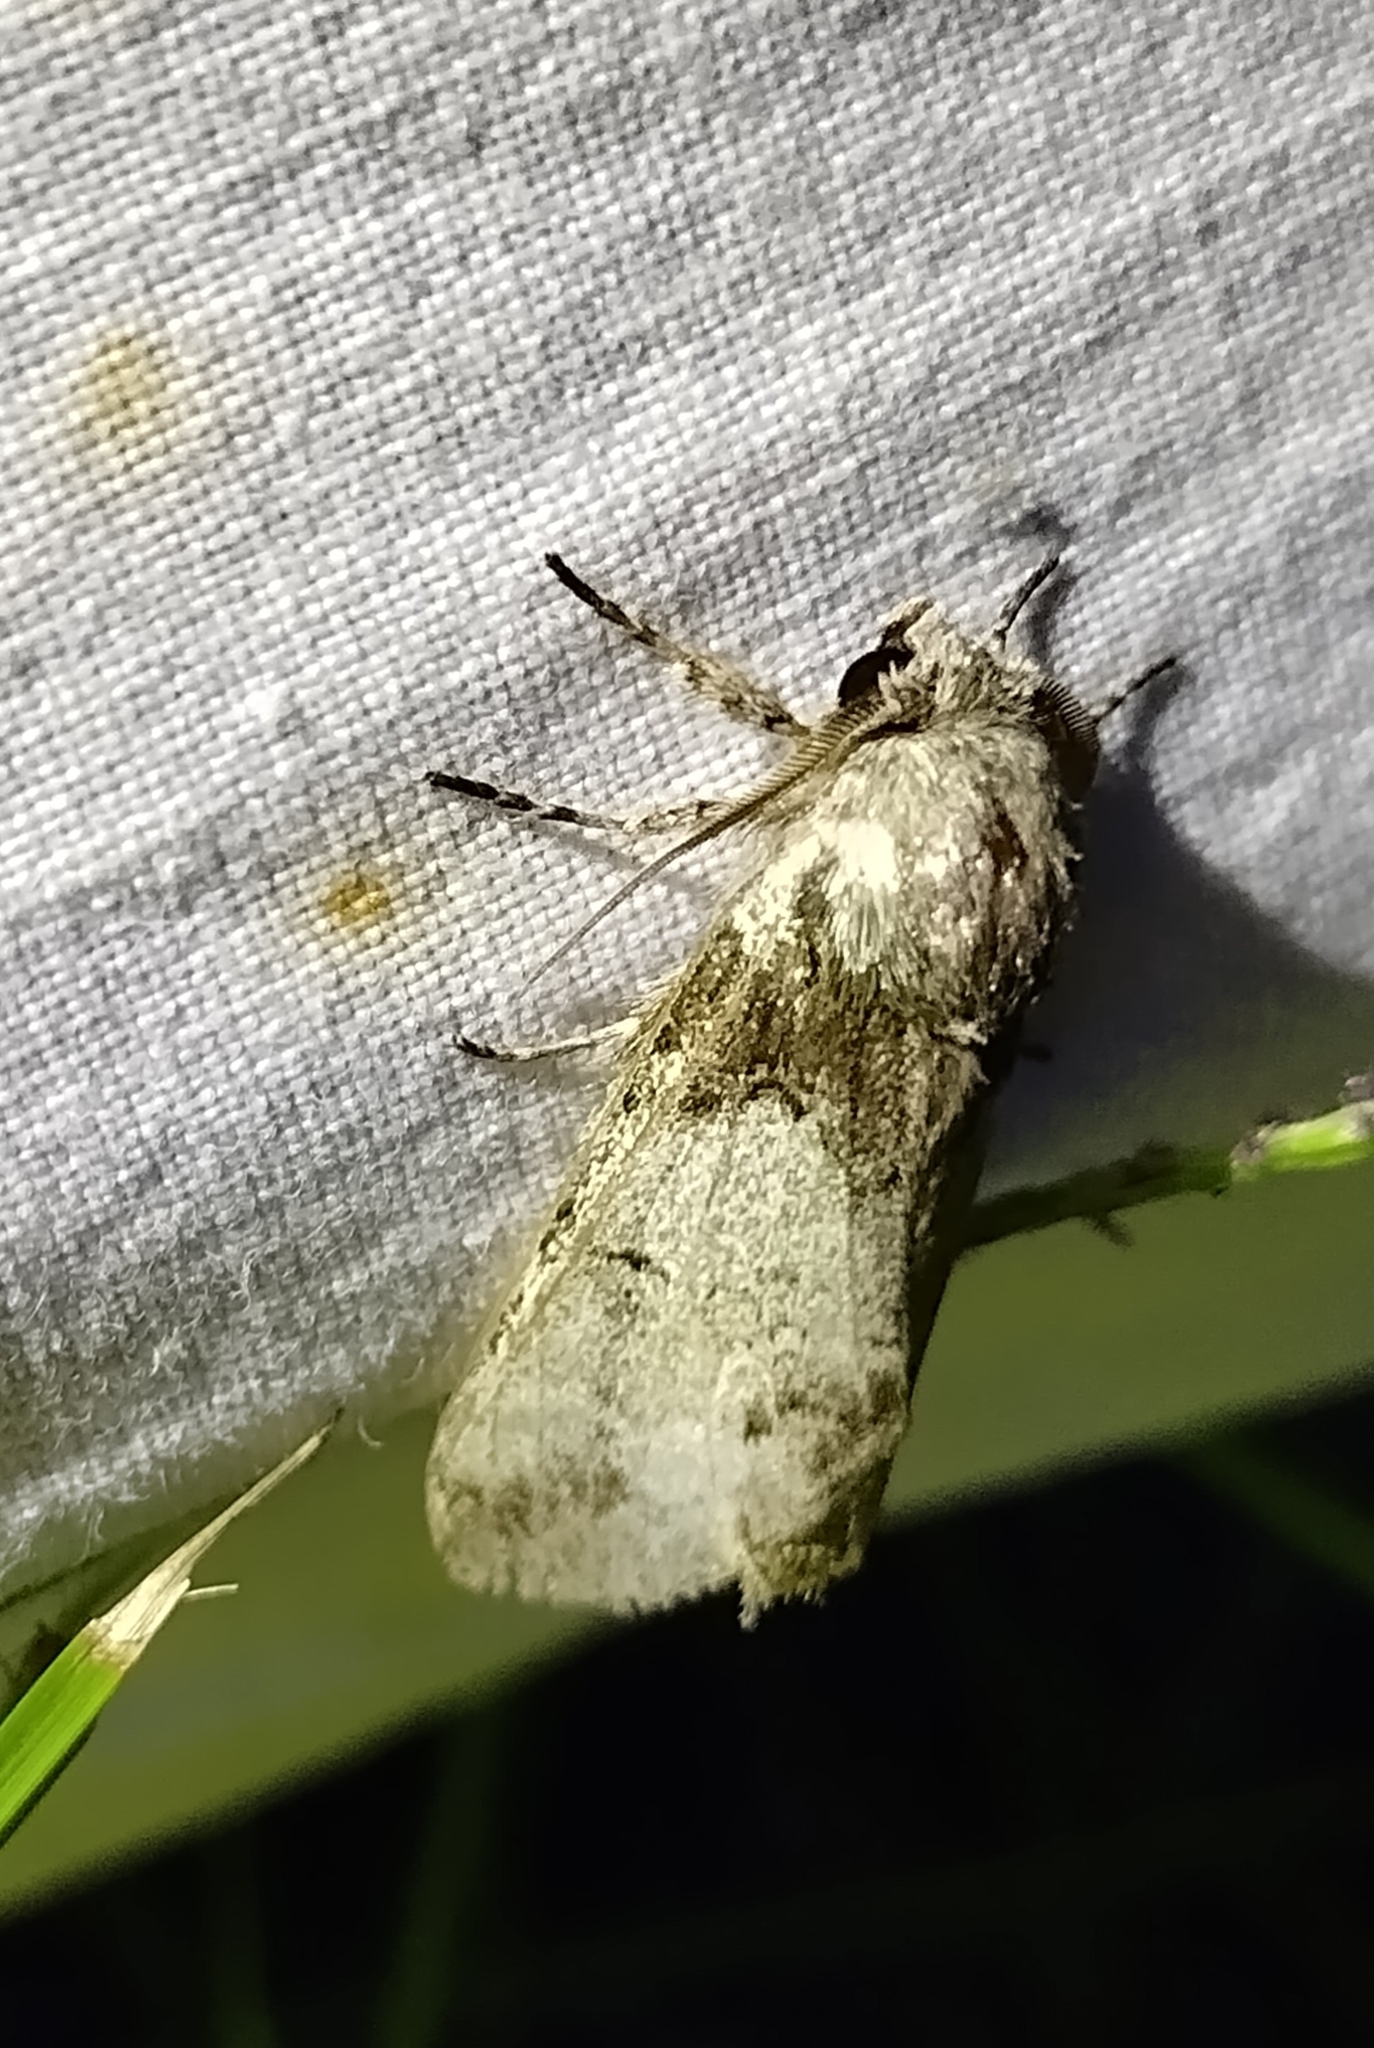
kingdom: Animalia
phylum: Arthropoda
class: Insecta
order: Lepidoptera
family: Notodontidae
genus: Macrurocampa
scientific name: Macrurocampa marthesia
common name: Mottled prominent
